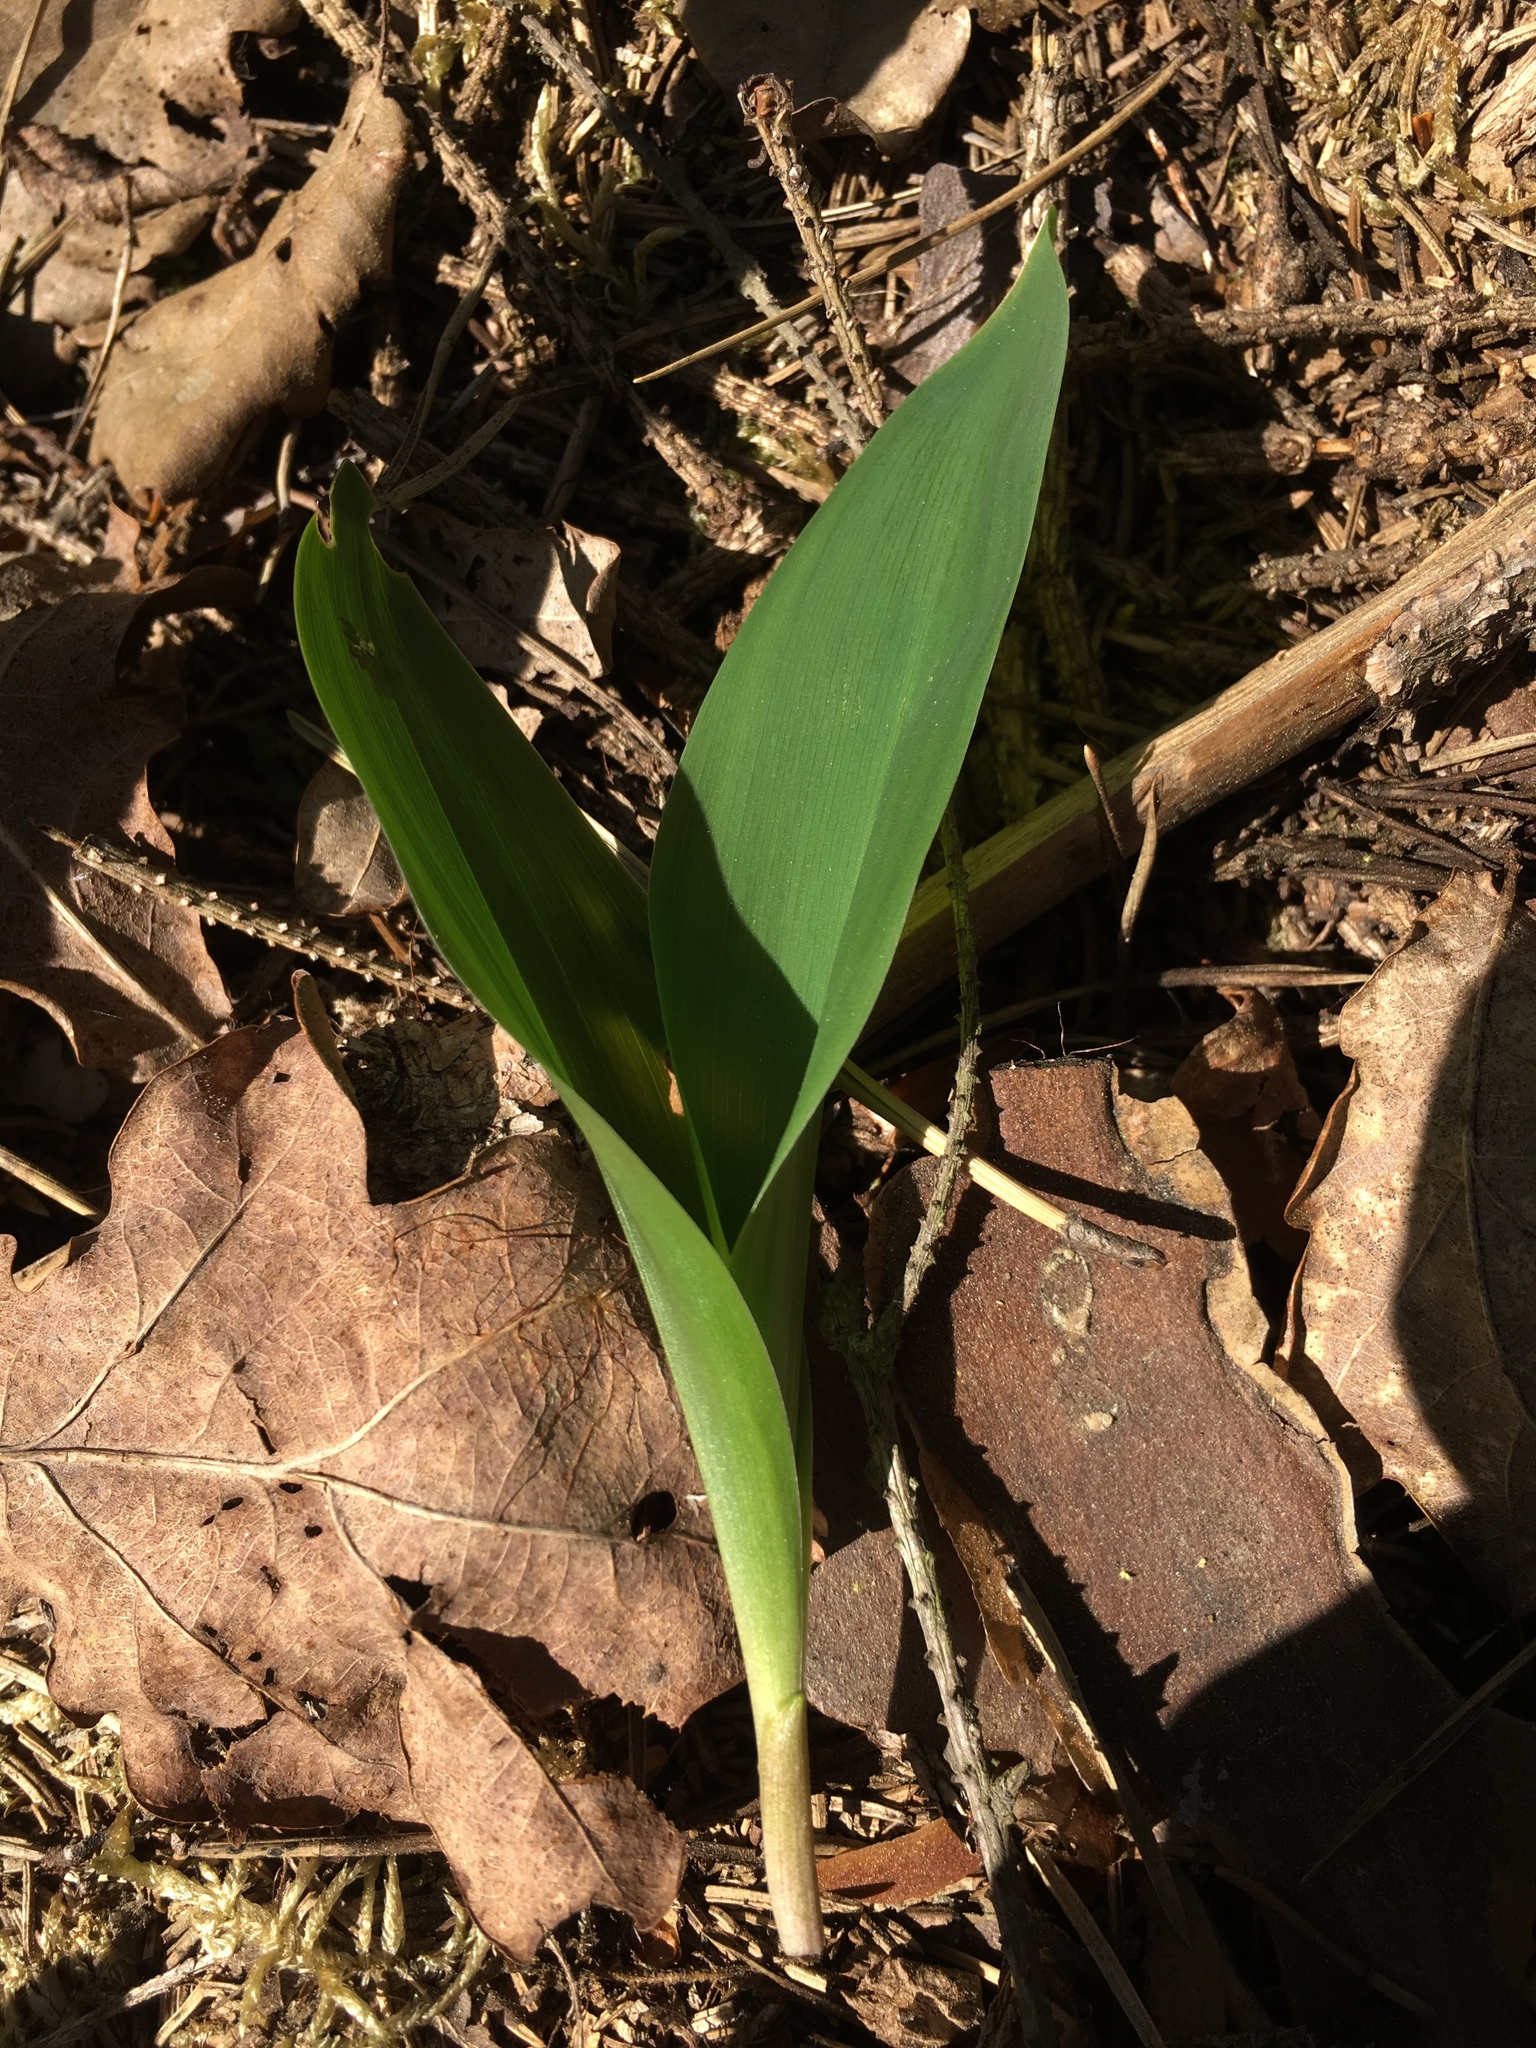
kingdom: Plantae
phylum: Tracheophyta
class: Liliopsida
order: Asparagales
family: Asparagaceae
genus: Convallaria
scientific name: Convallaria majalis
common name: Lily-of-the-valley
